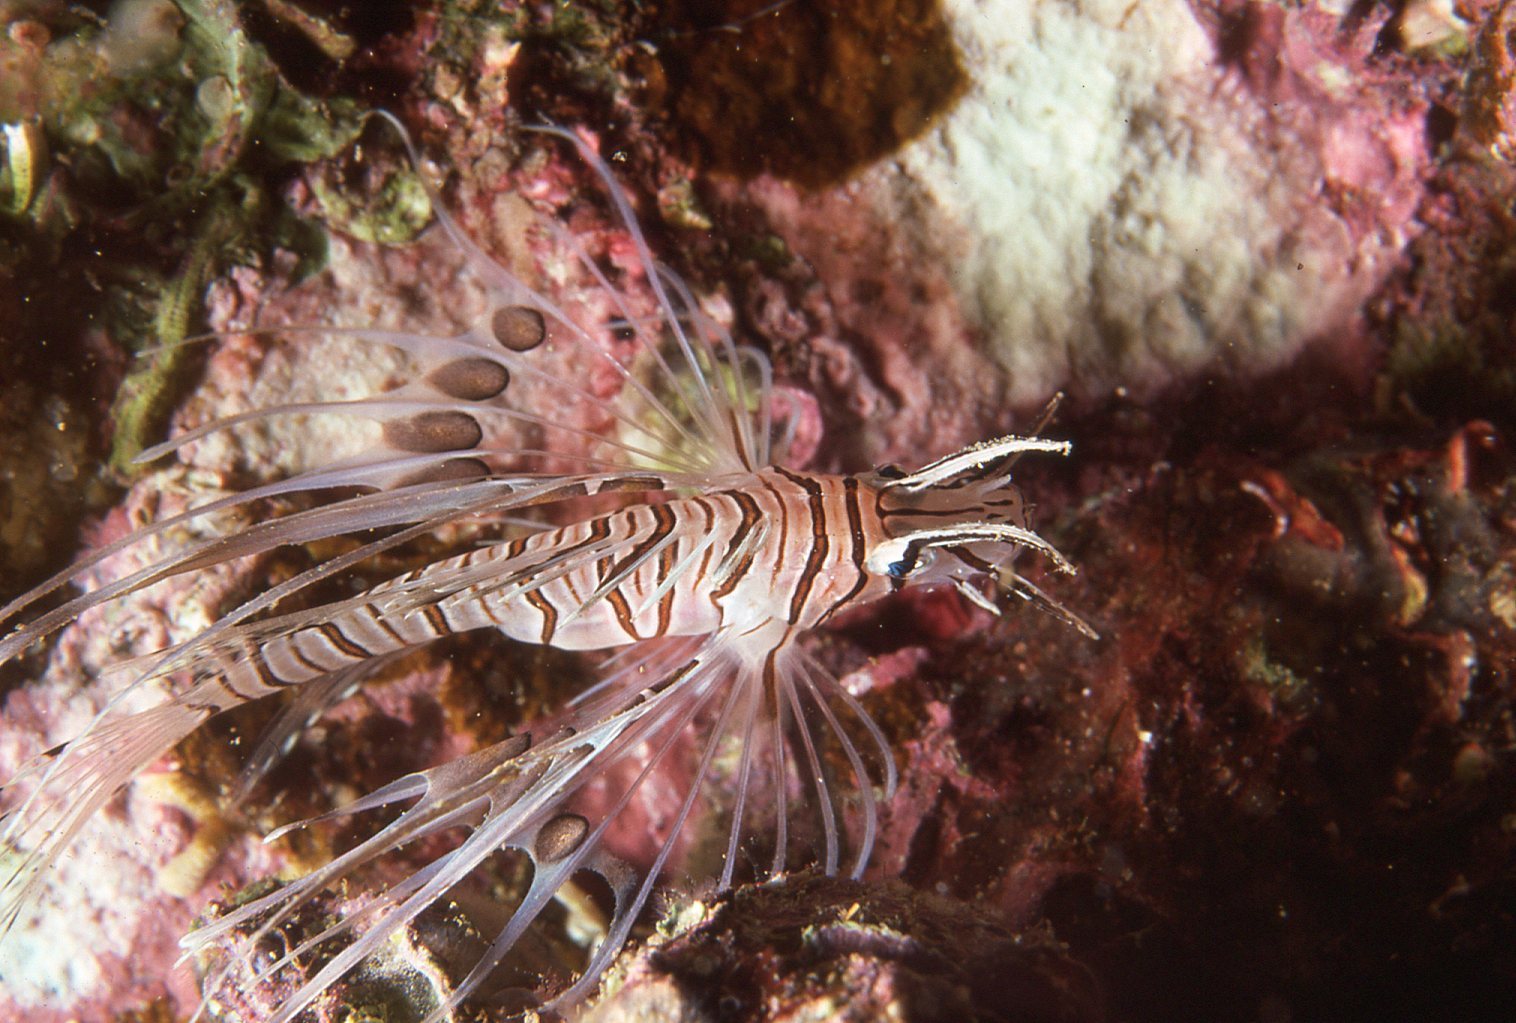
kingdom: Animalia
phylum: Chordata
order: Scorpaeniformes
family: Scorpaenidae
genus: Pterois
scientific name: Pterois volitans
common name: Lionfish
